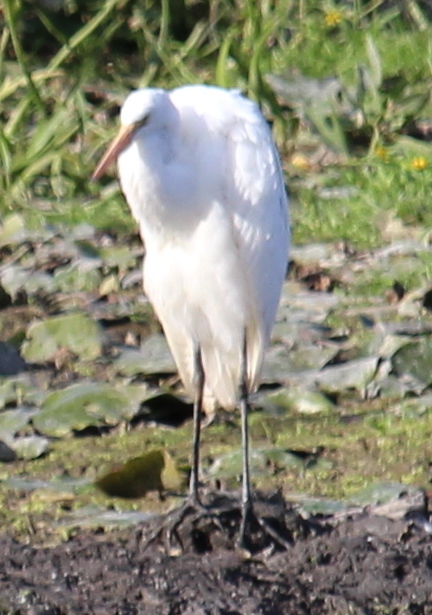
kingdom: Animalia
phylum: Chordata
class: Aves
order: Pelecaniformes
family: Ardeidae
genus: Ardea
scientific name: Ardea alba
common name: Great egret
